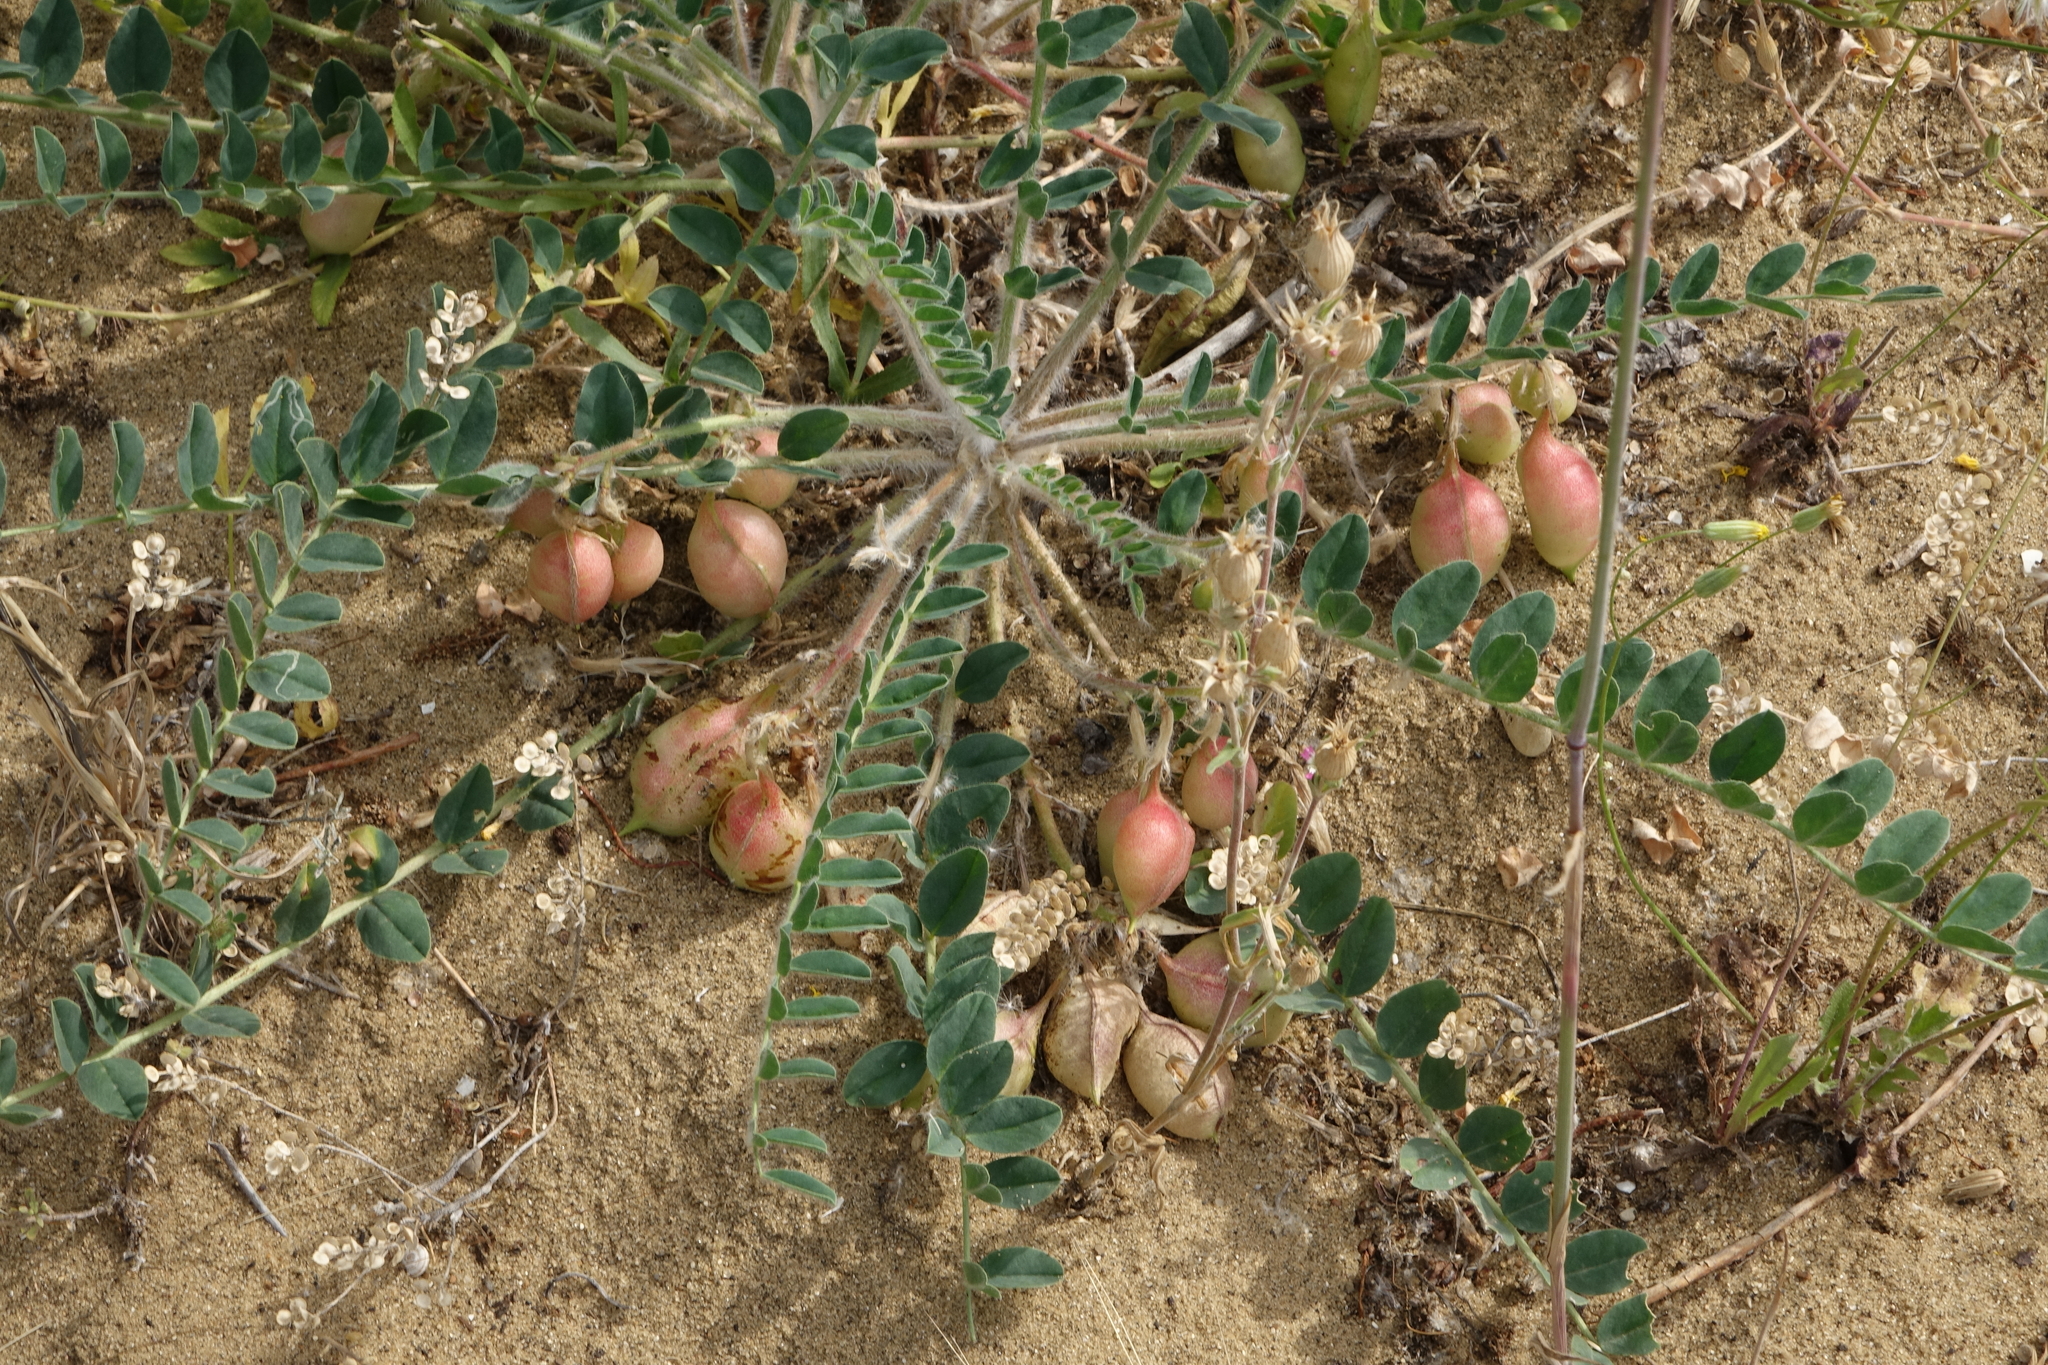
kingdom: Plantae
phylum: Tracheophyta
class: Magnoliopsida
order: Fabales
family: Fabaceae
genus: Astragalus
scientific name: Astragalus longipetalus
